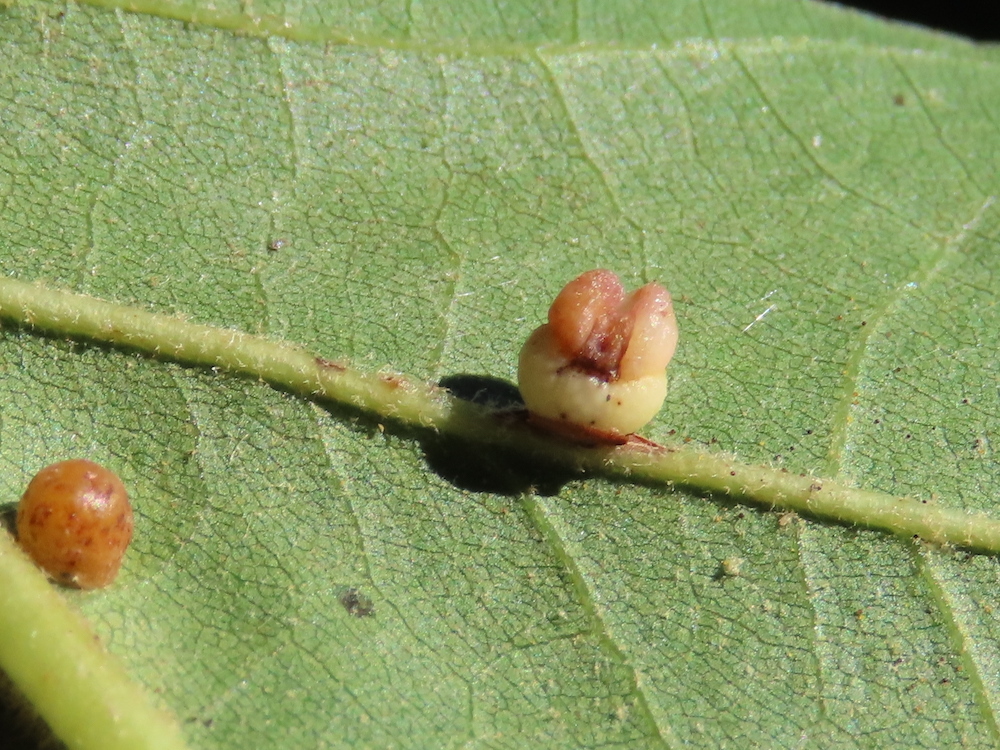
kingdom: Animalia
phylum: Arthropoda
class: Insecta
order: Hymenoptera
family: Cynipidae
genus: Kokkocynips
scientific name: Kokkocynips rileyi
